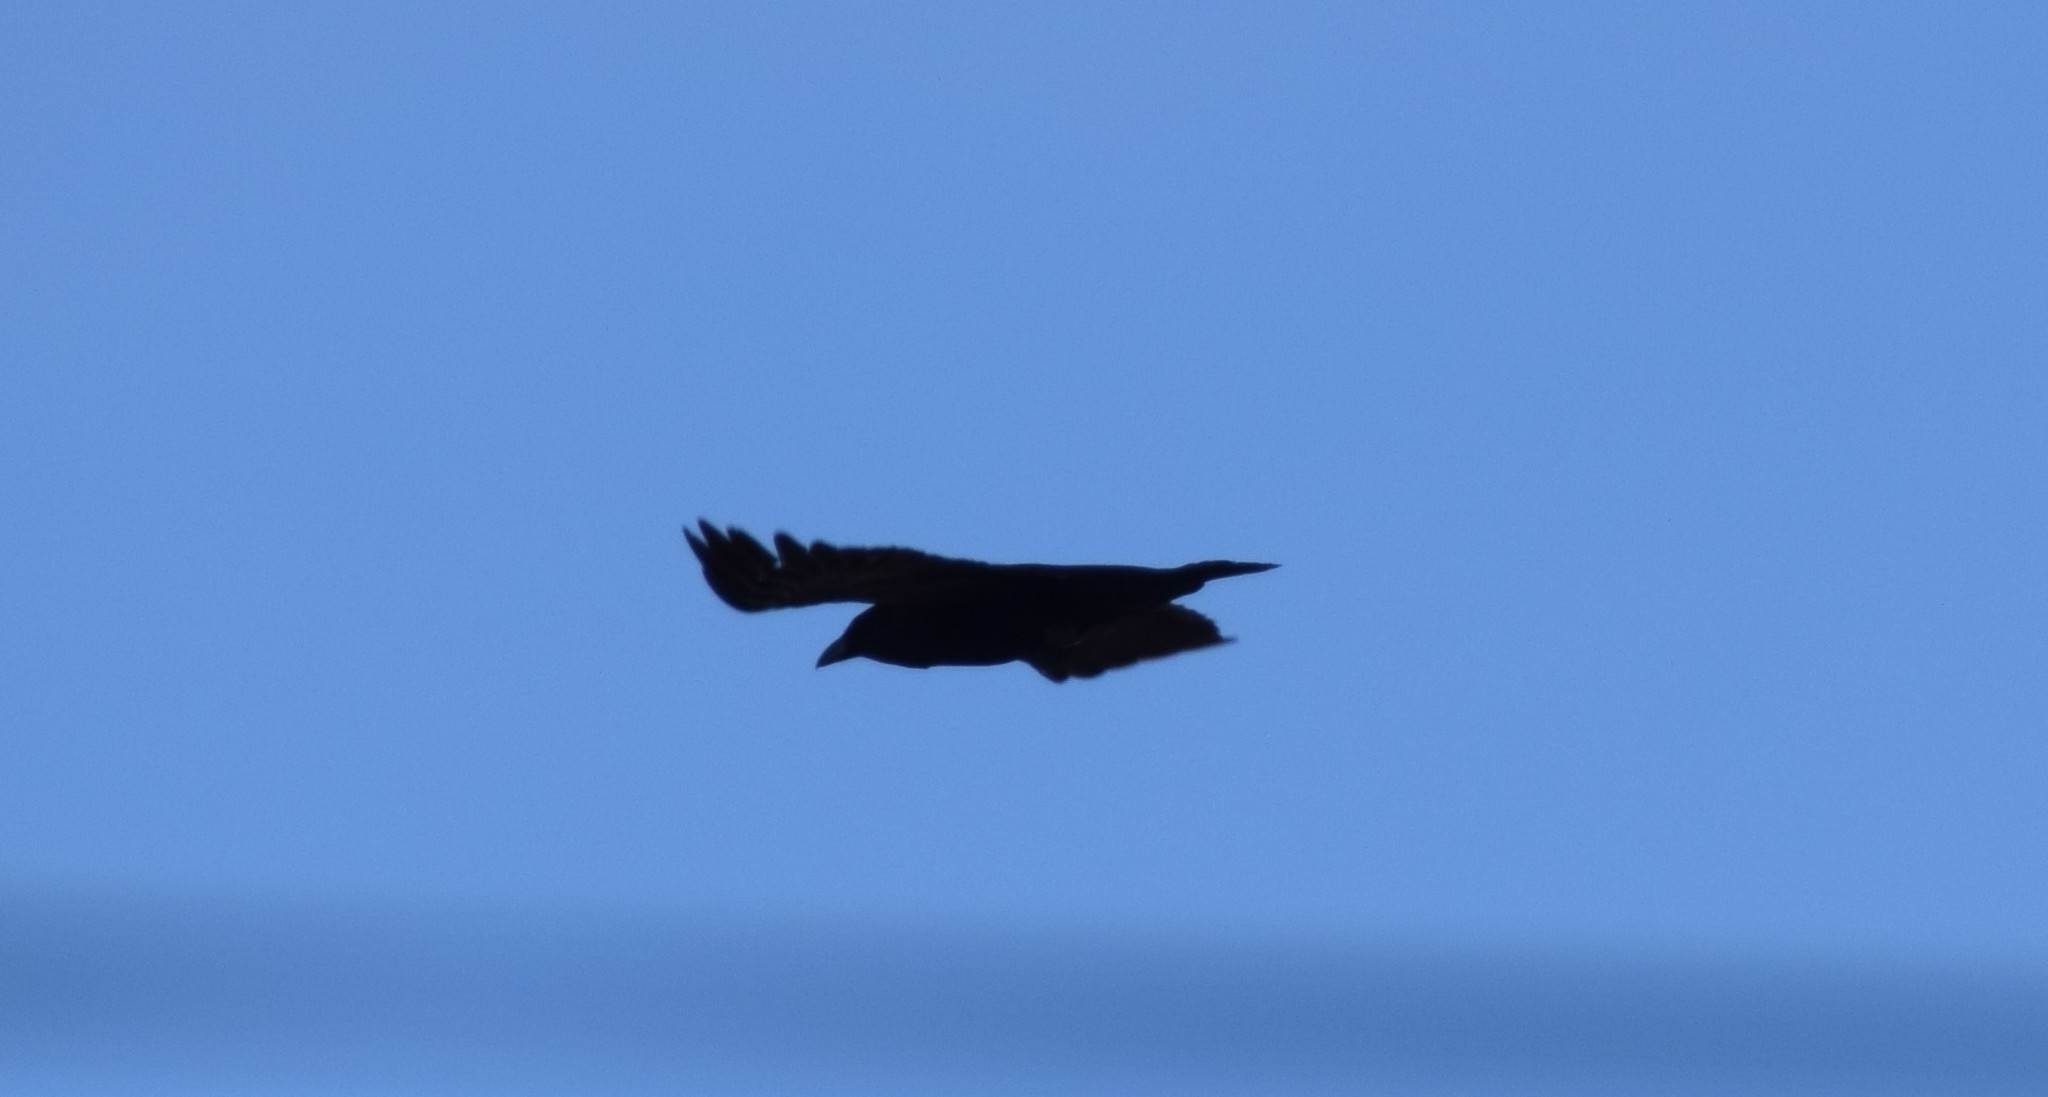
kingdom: Animalia
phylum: Chordata
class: Aves
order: Passeriformes
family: Corvidae
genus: Corvus
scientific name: Corvus brachyrhynchos
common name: American crow
